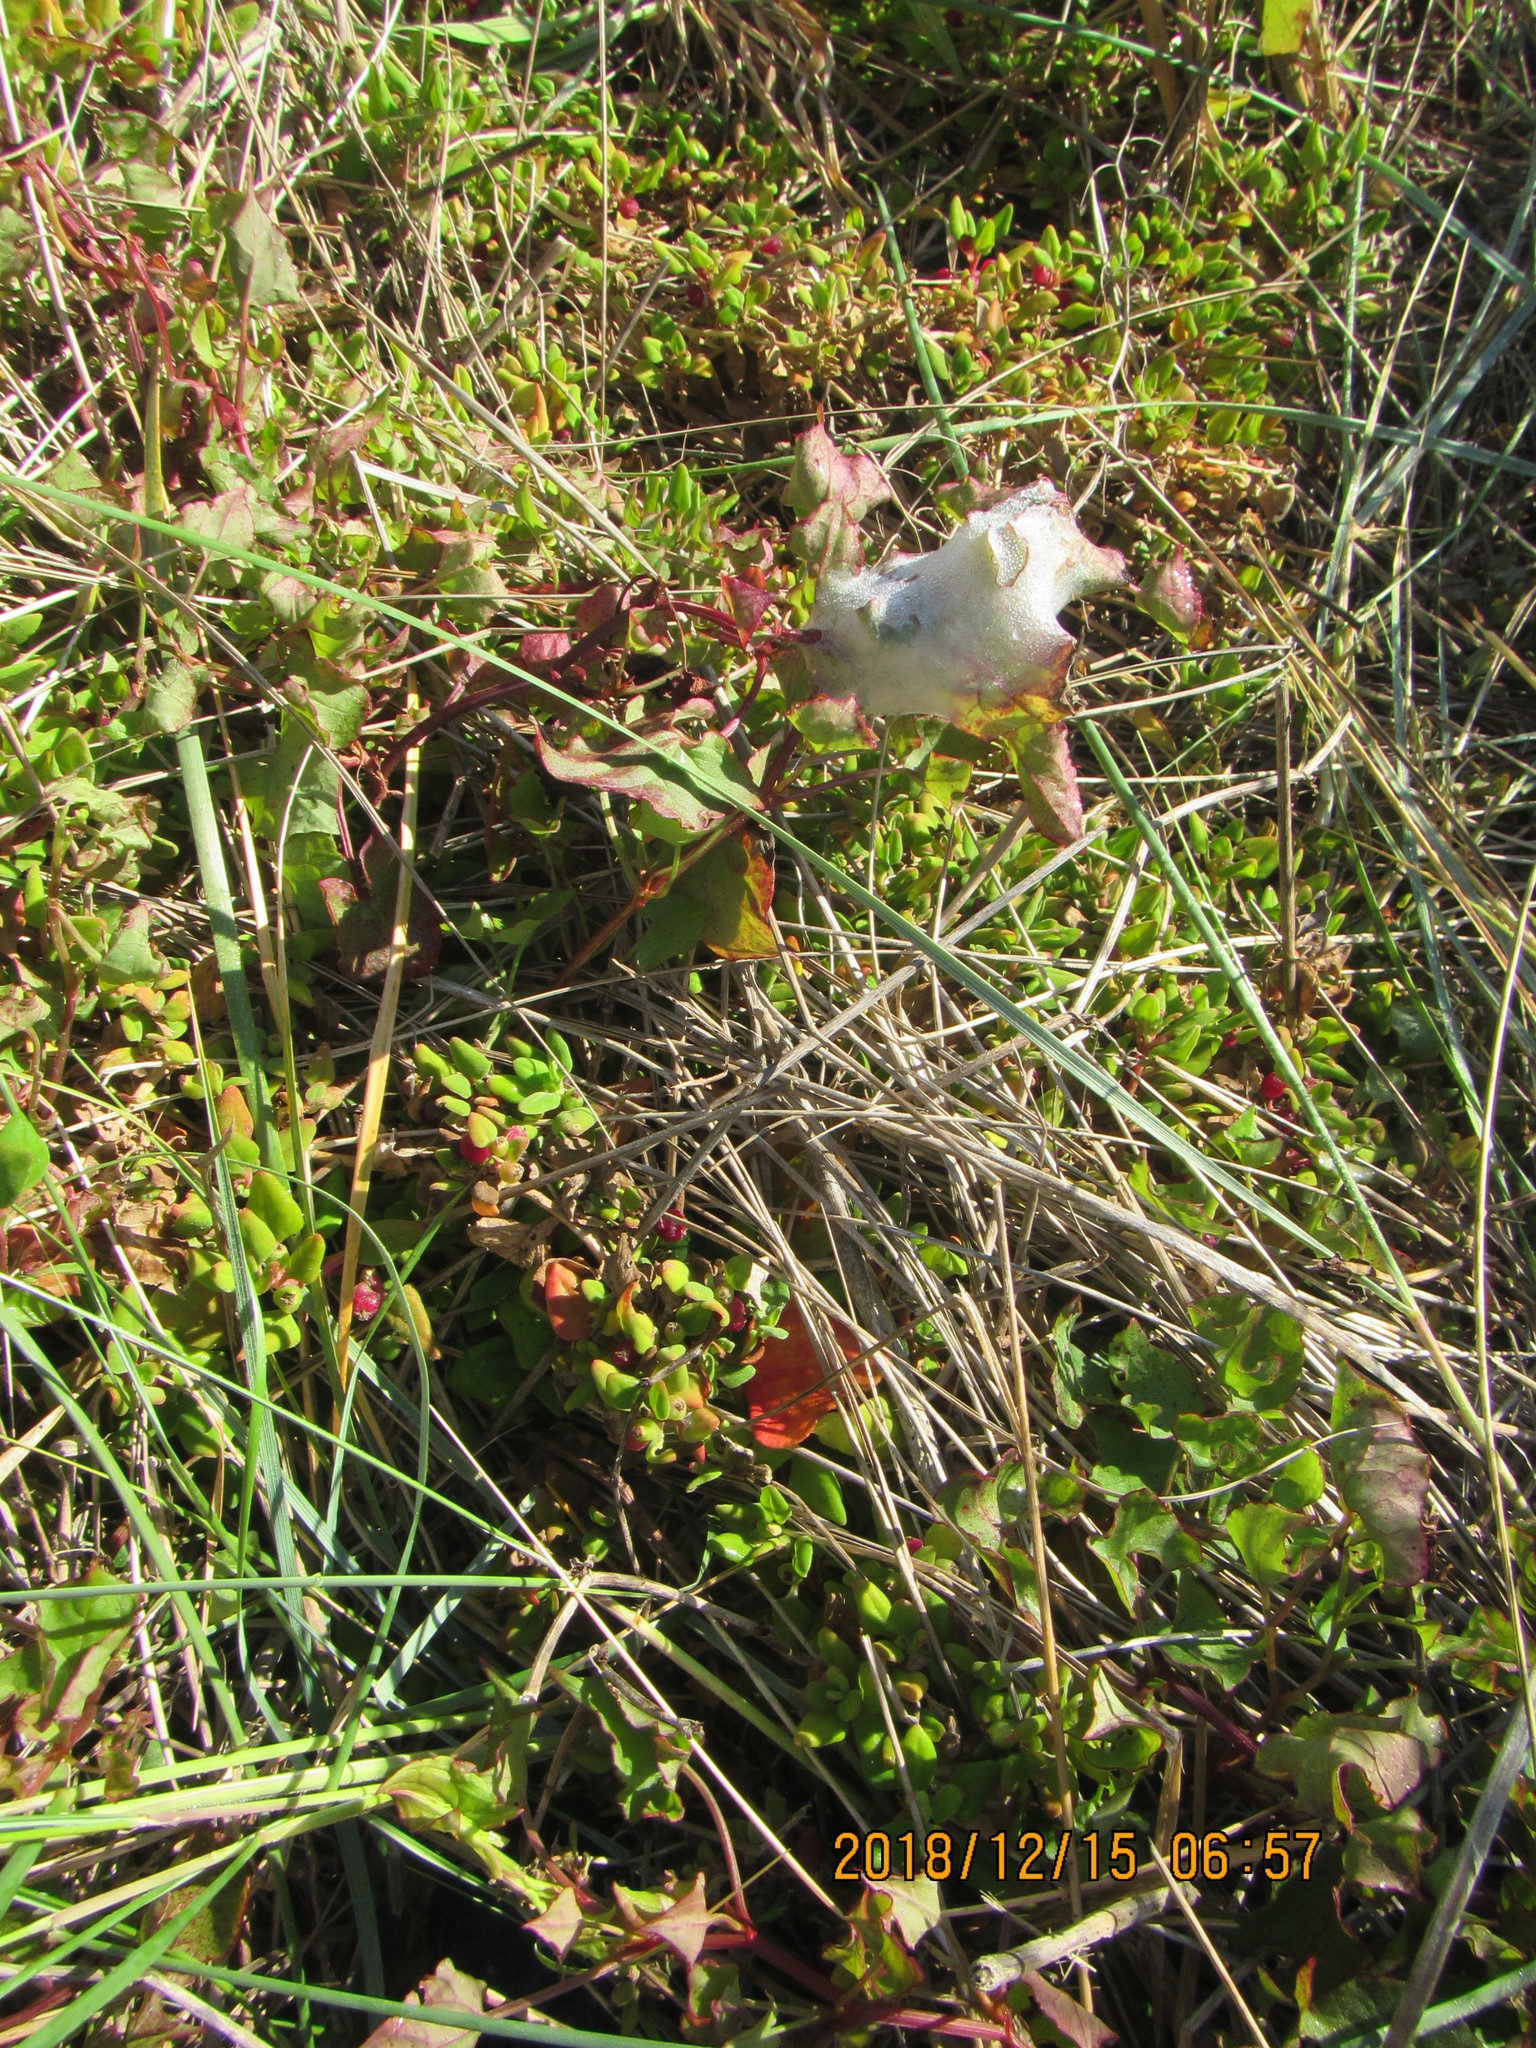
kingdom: Animalia
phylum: Arthropoda
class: Arachnida
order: Araneae
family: Pisauridae
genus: Dolomedes
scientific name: Dolomedes minor
